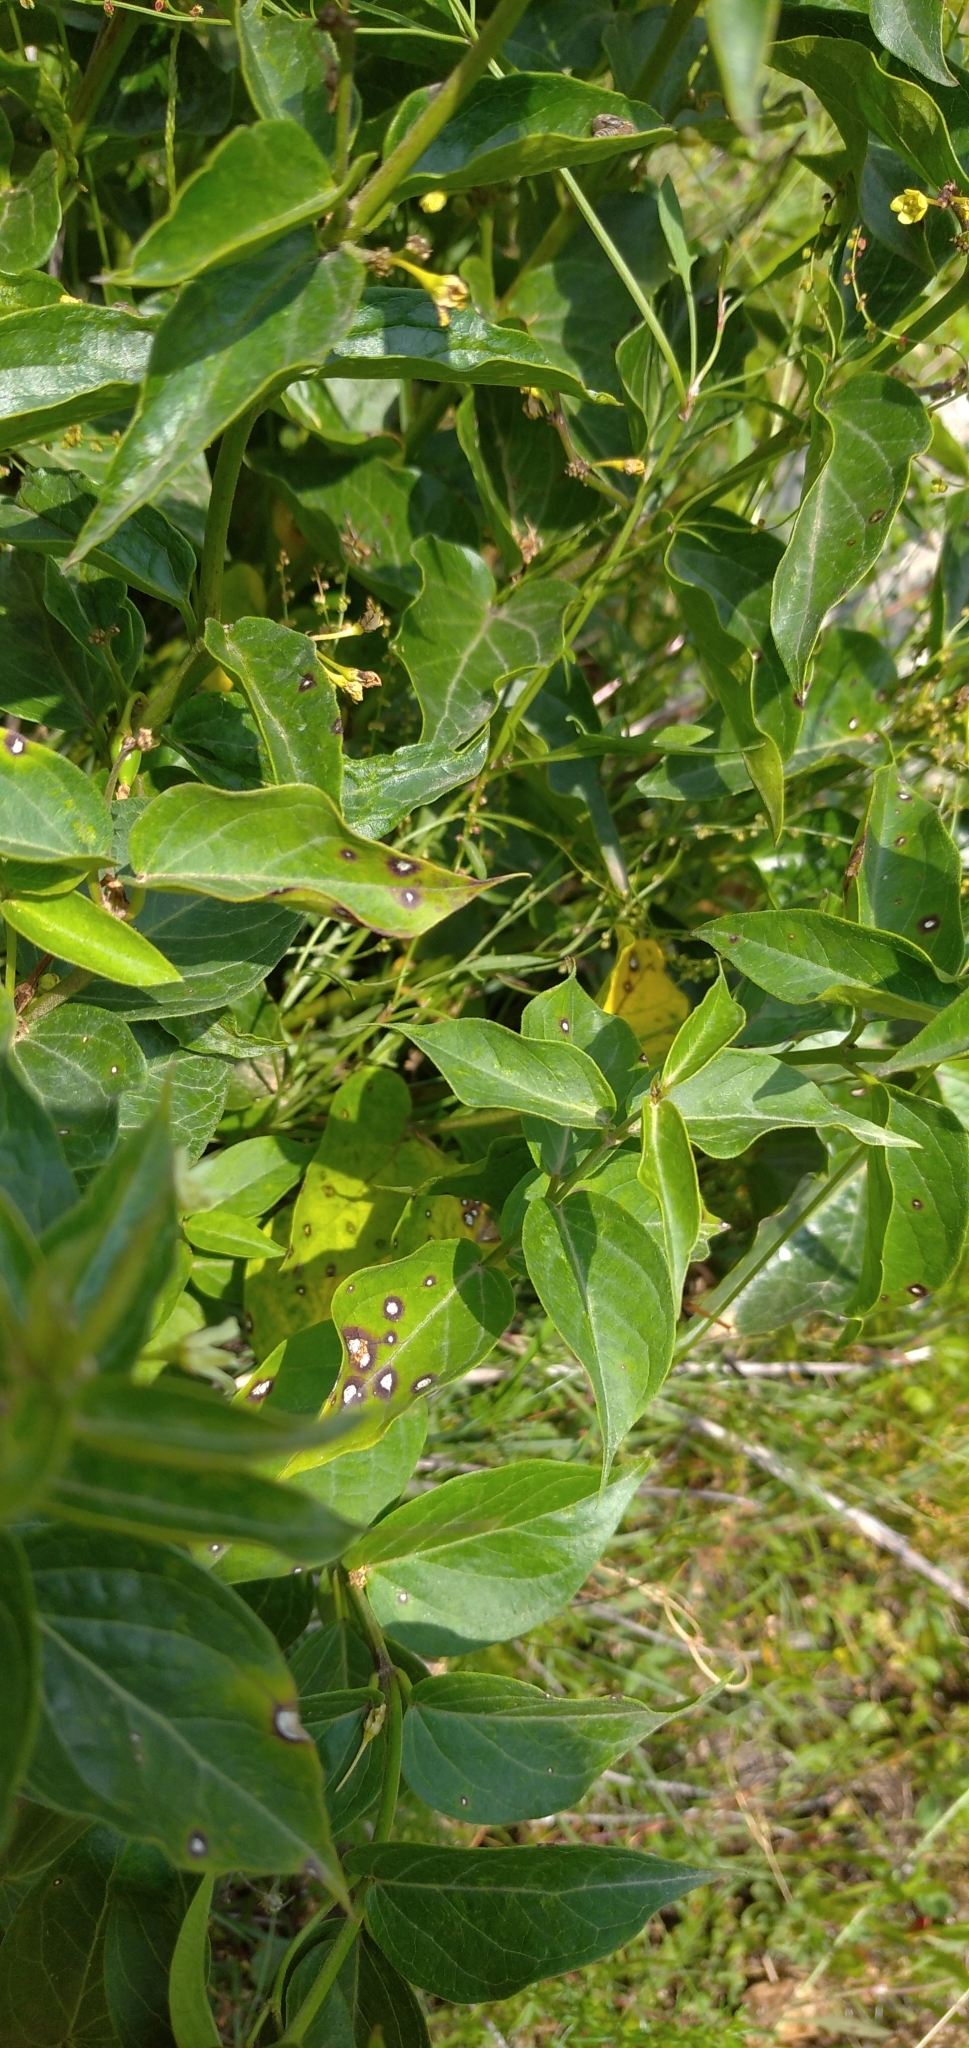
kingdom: Plantae
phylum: Tracheophyta
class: Magnoliopsida
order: Gentianales
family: Apocynaceae
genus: Vincetoxicum
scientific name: Vincetoxicum hirundinaria
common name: White swallowwort
